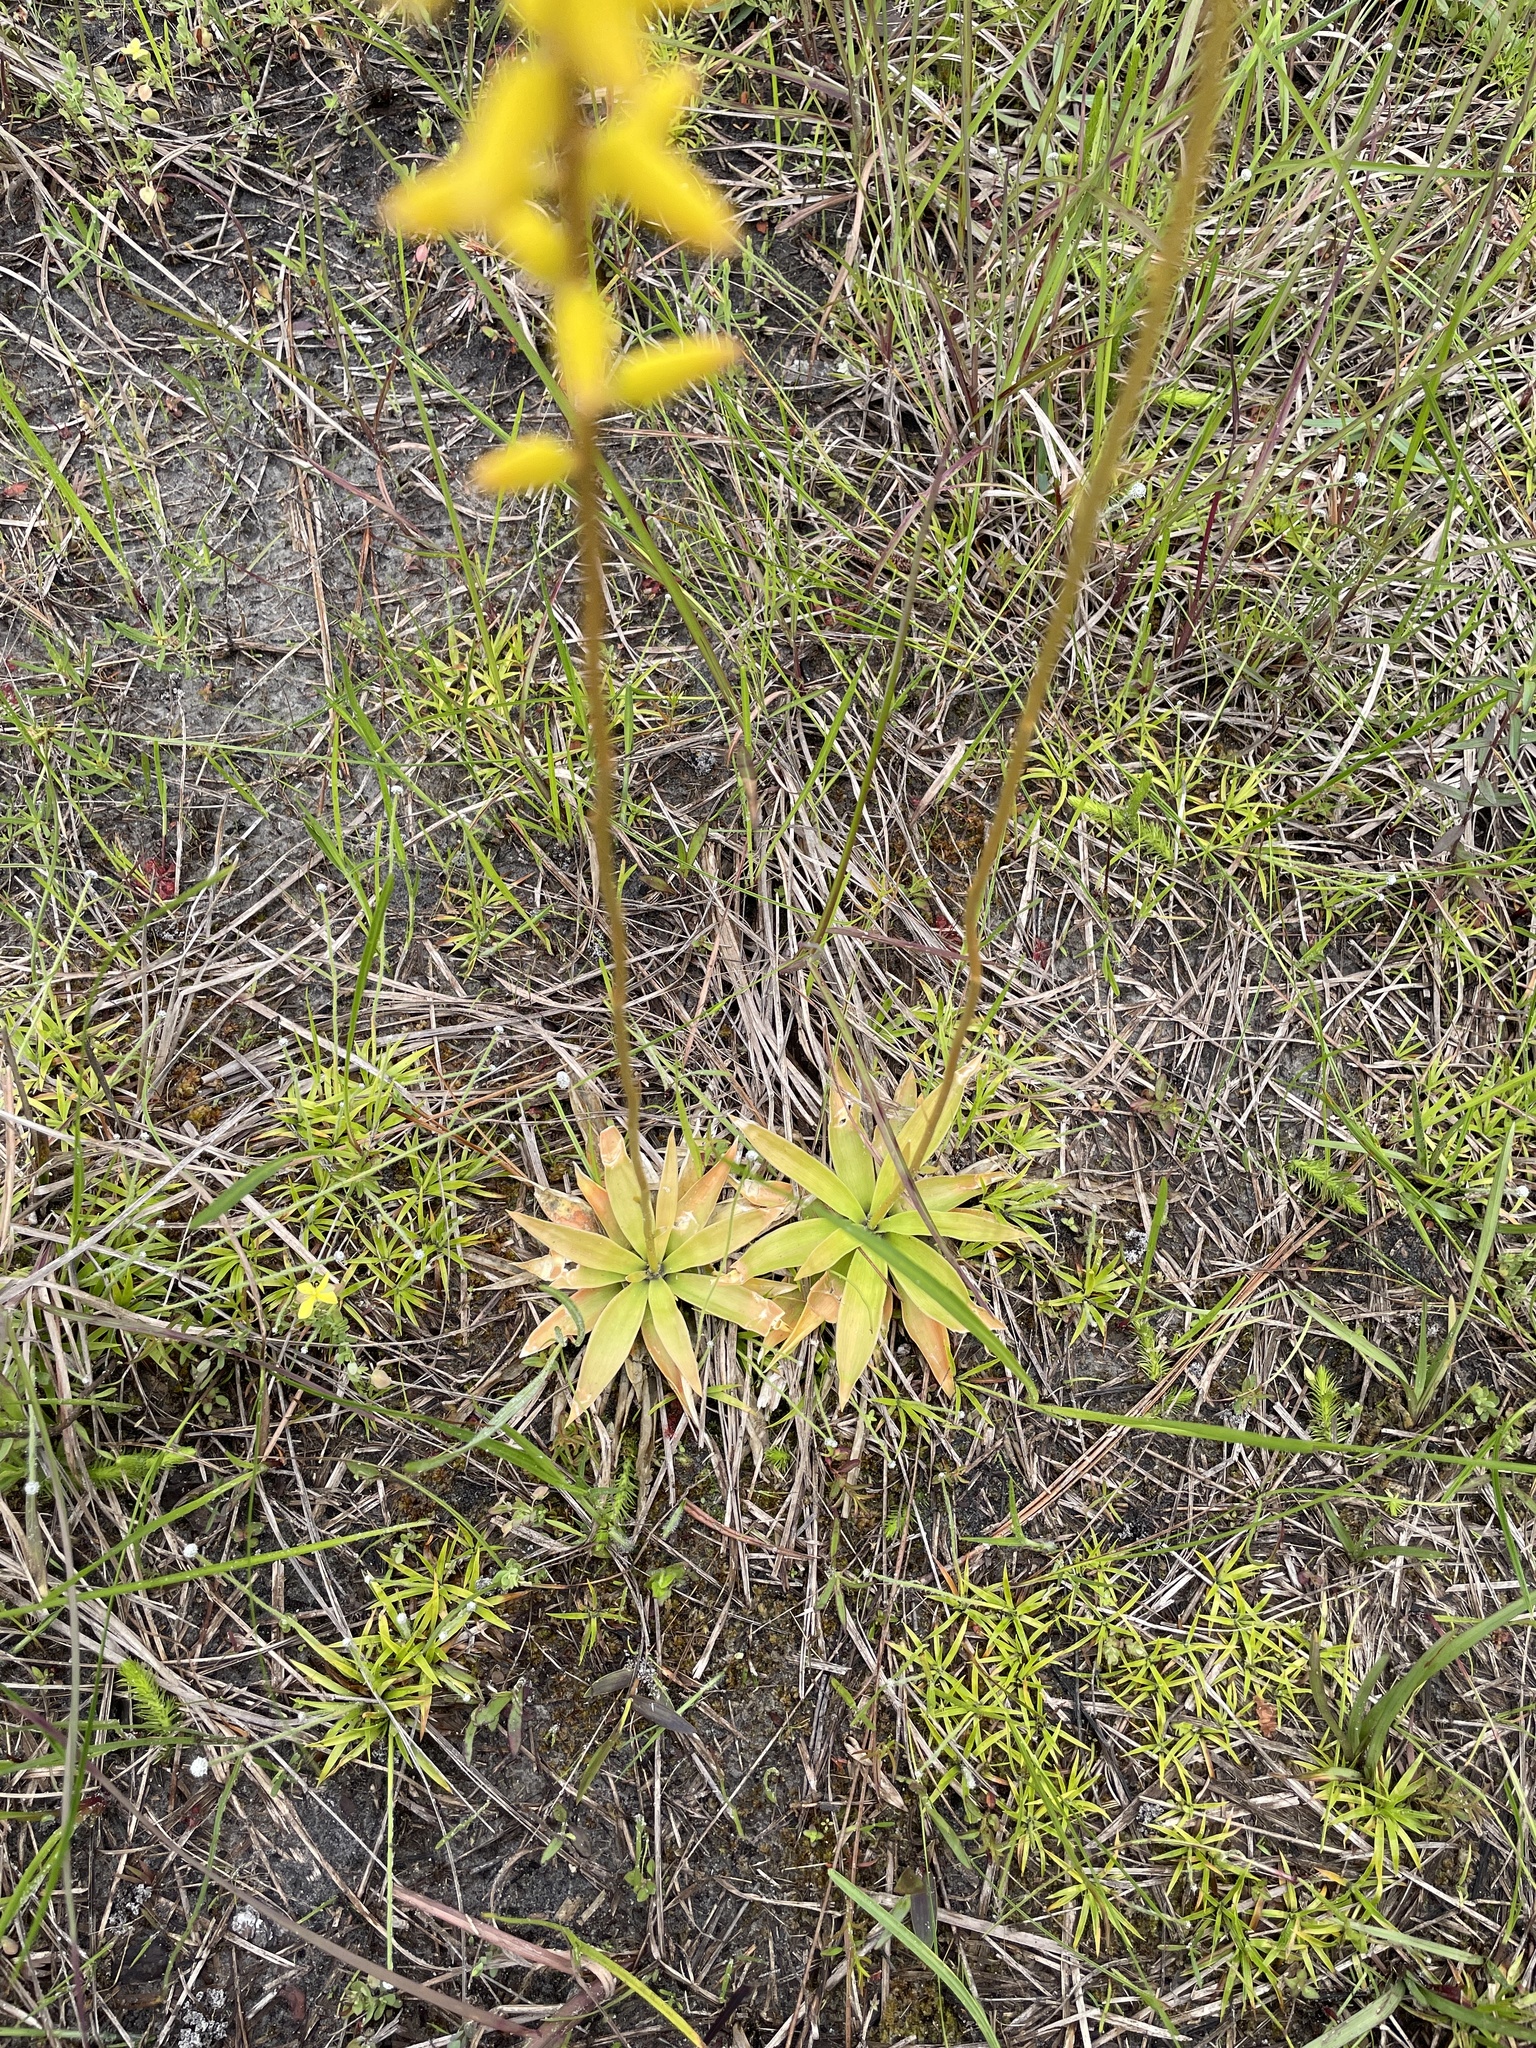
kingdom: Plantae
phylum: Tracheophyta
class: Liliopsida
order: Dioscoreales
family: Nartheciaceae
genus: Aletris
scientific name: Aletris lutea
